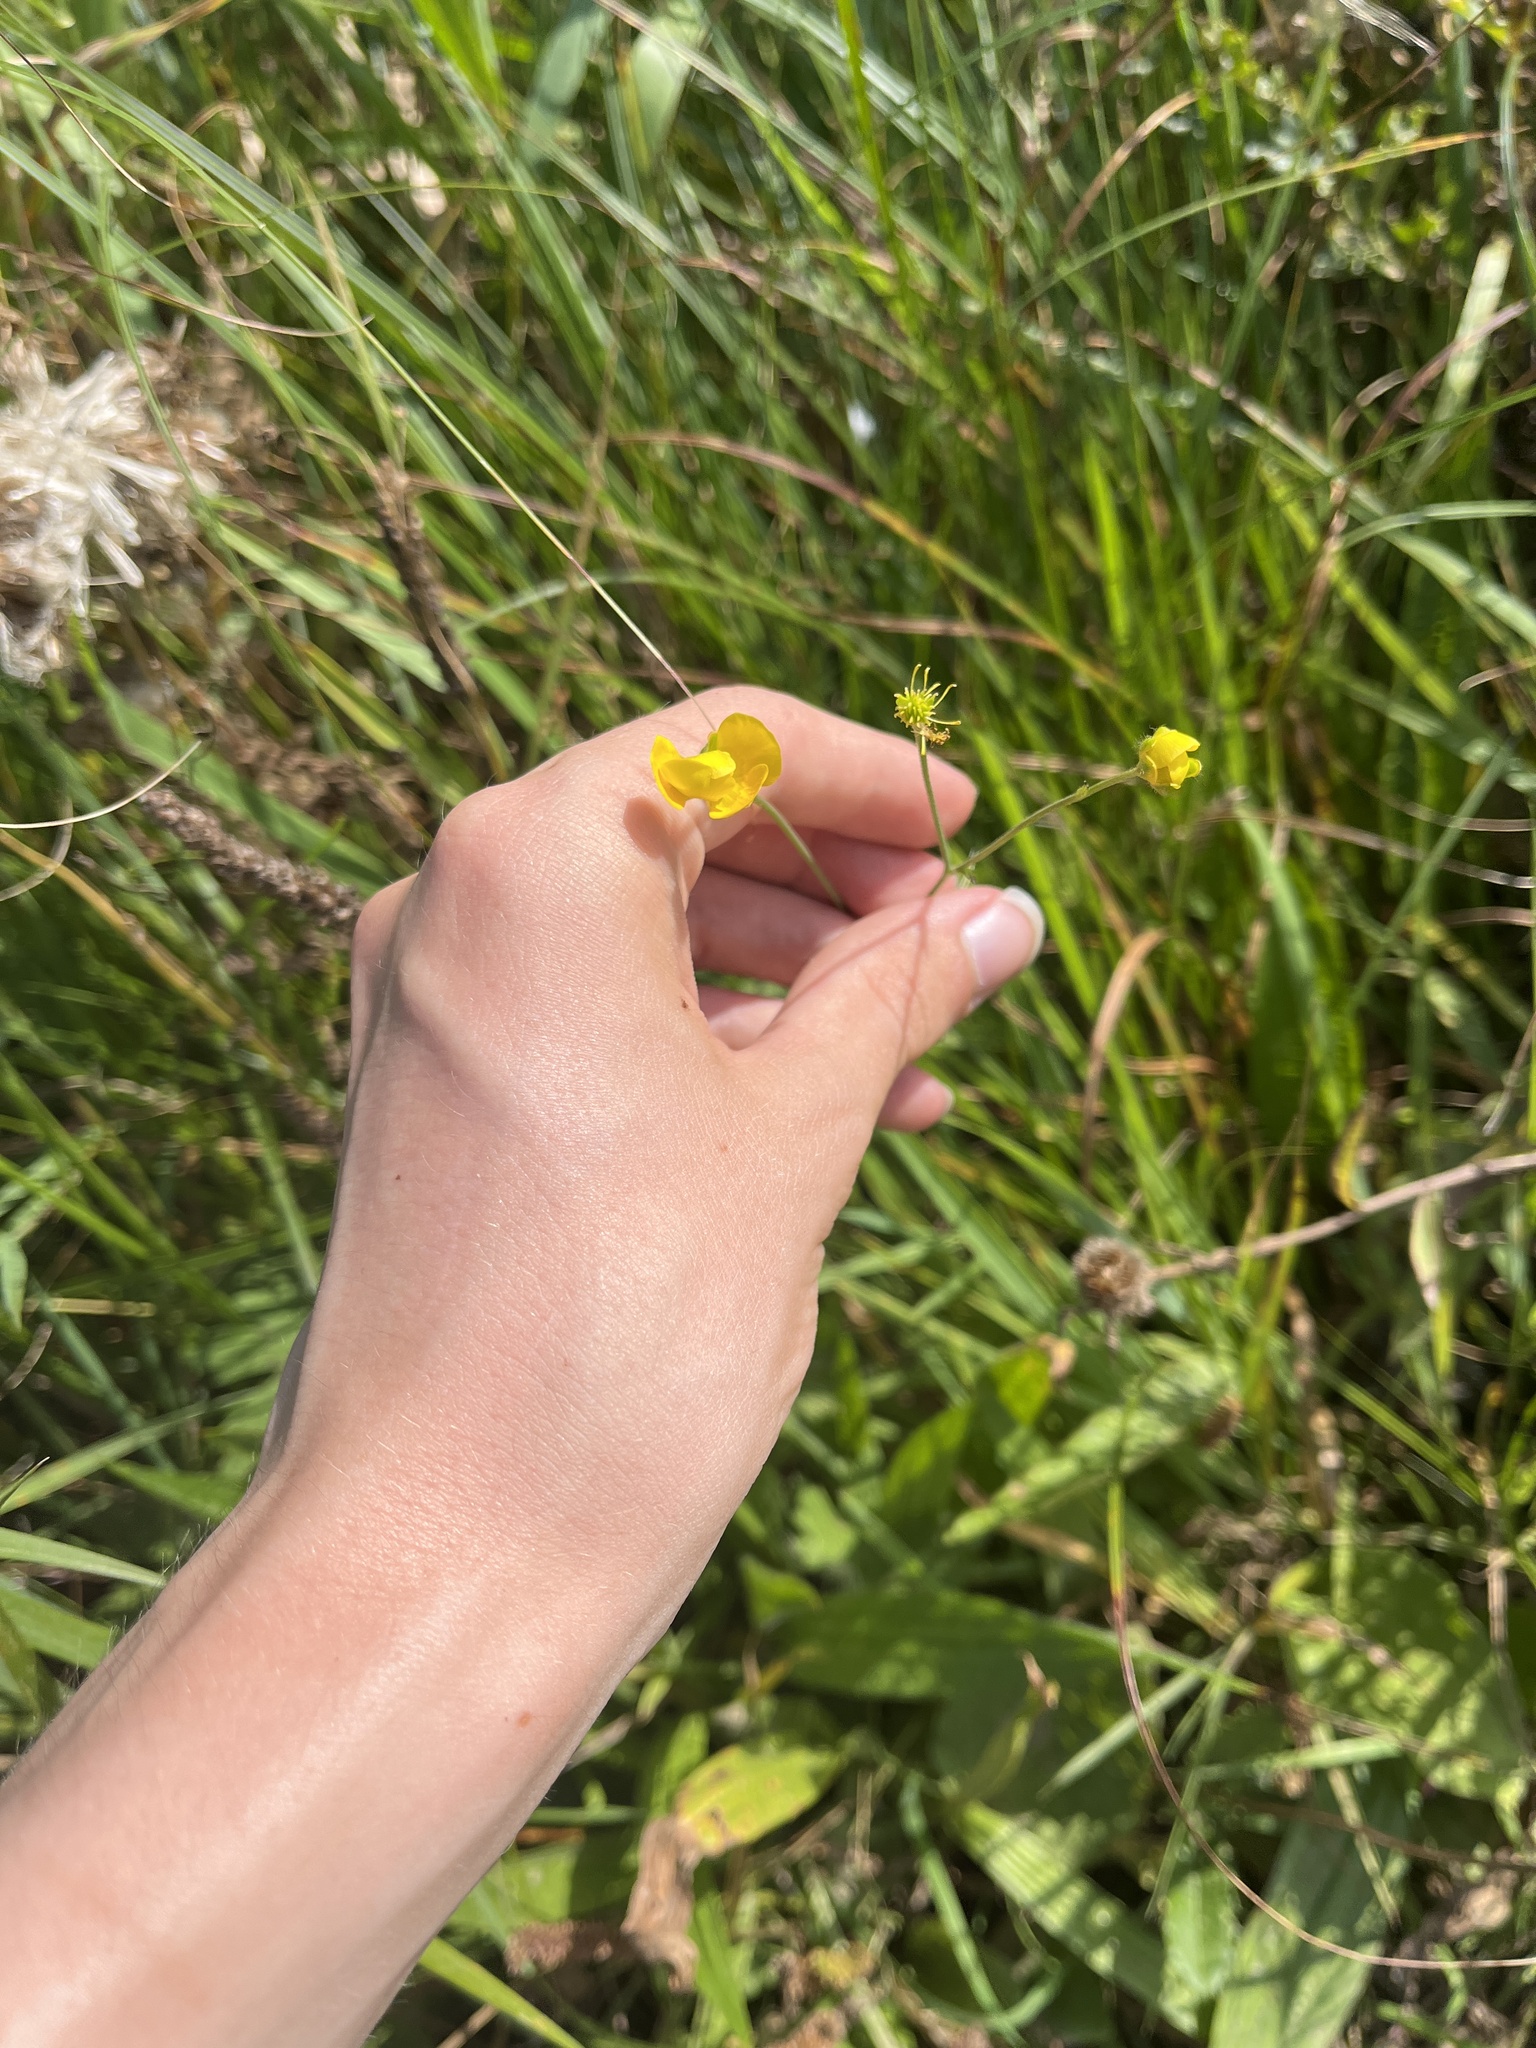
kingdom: Plantae
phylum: Tracheophyta
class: Magnoliopsida
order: Ranunculales
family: Ranunculaceae
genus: Ranunculus
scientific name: Ranunculus acris
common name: Meadow buttercup
